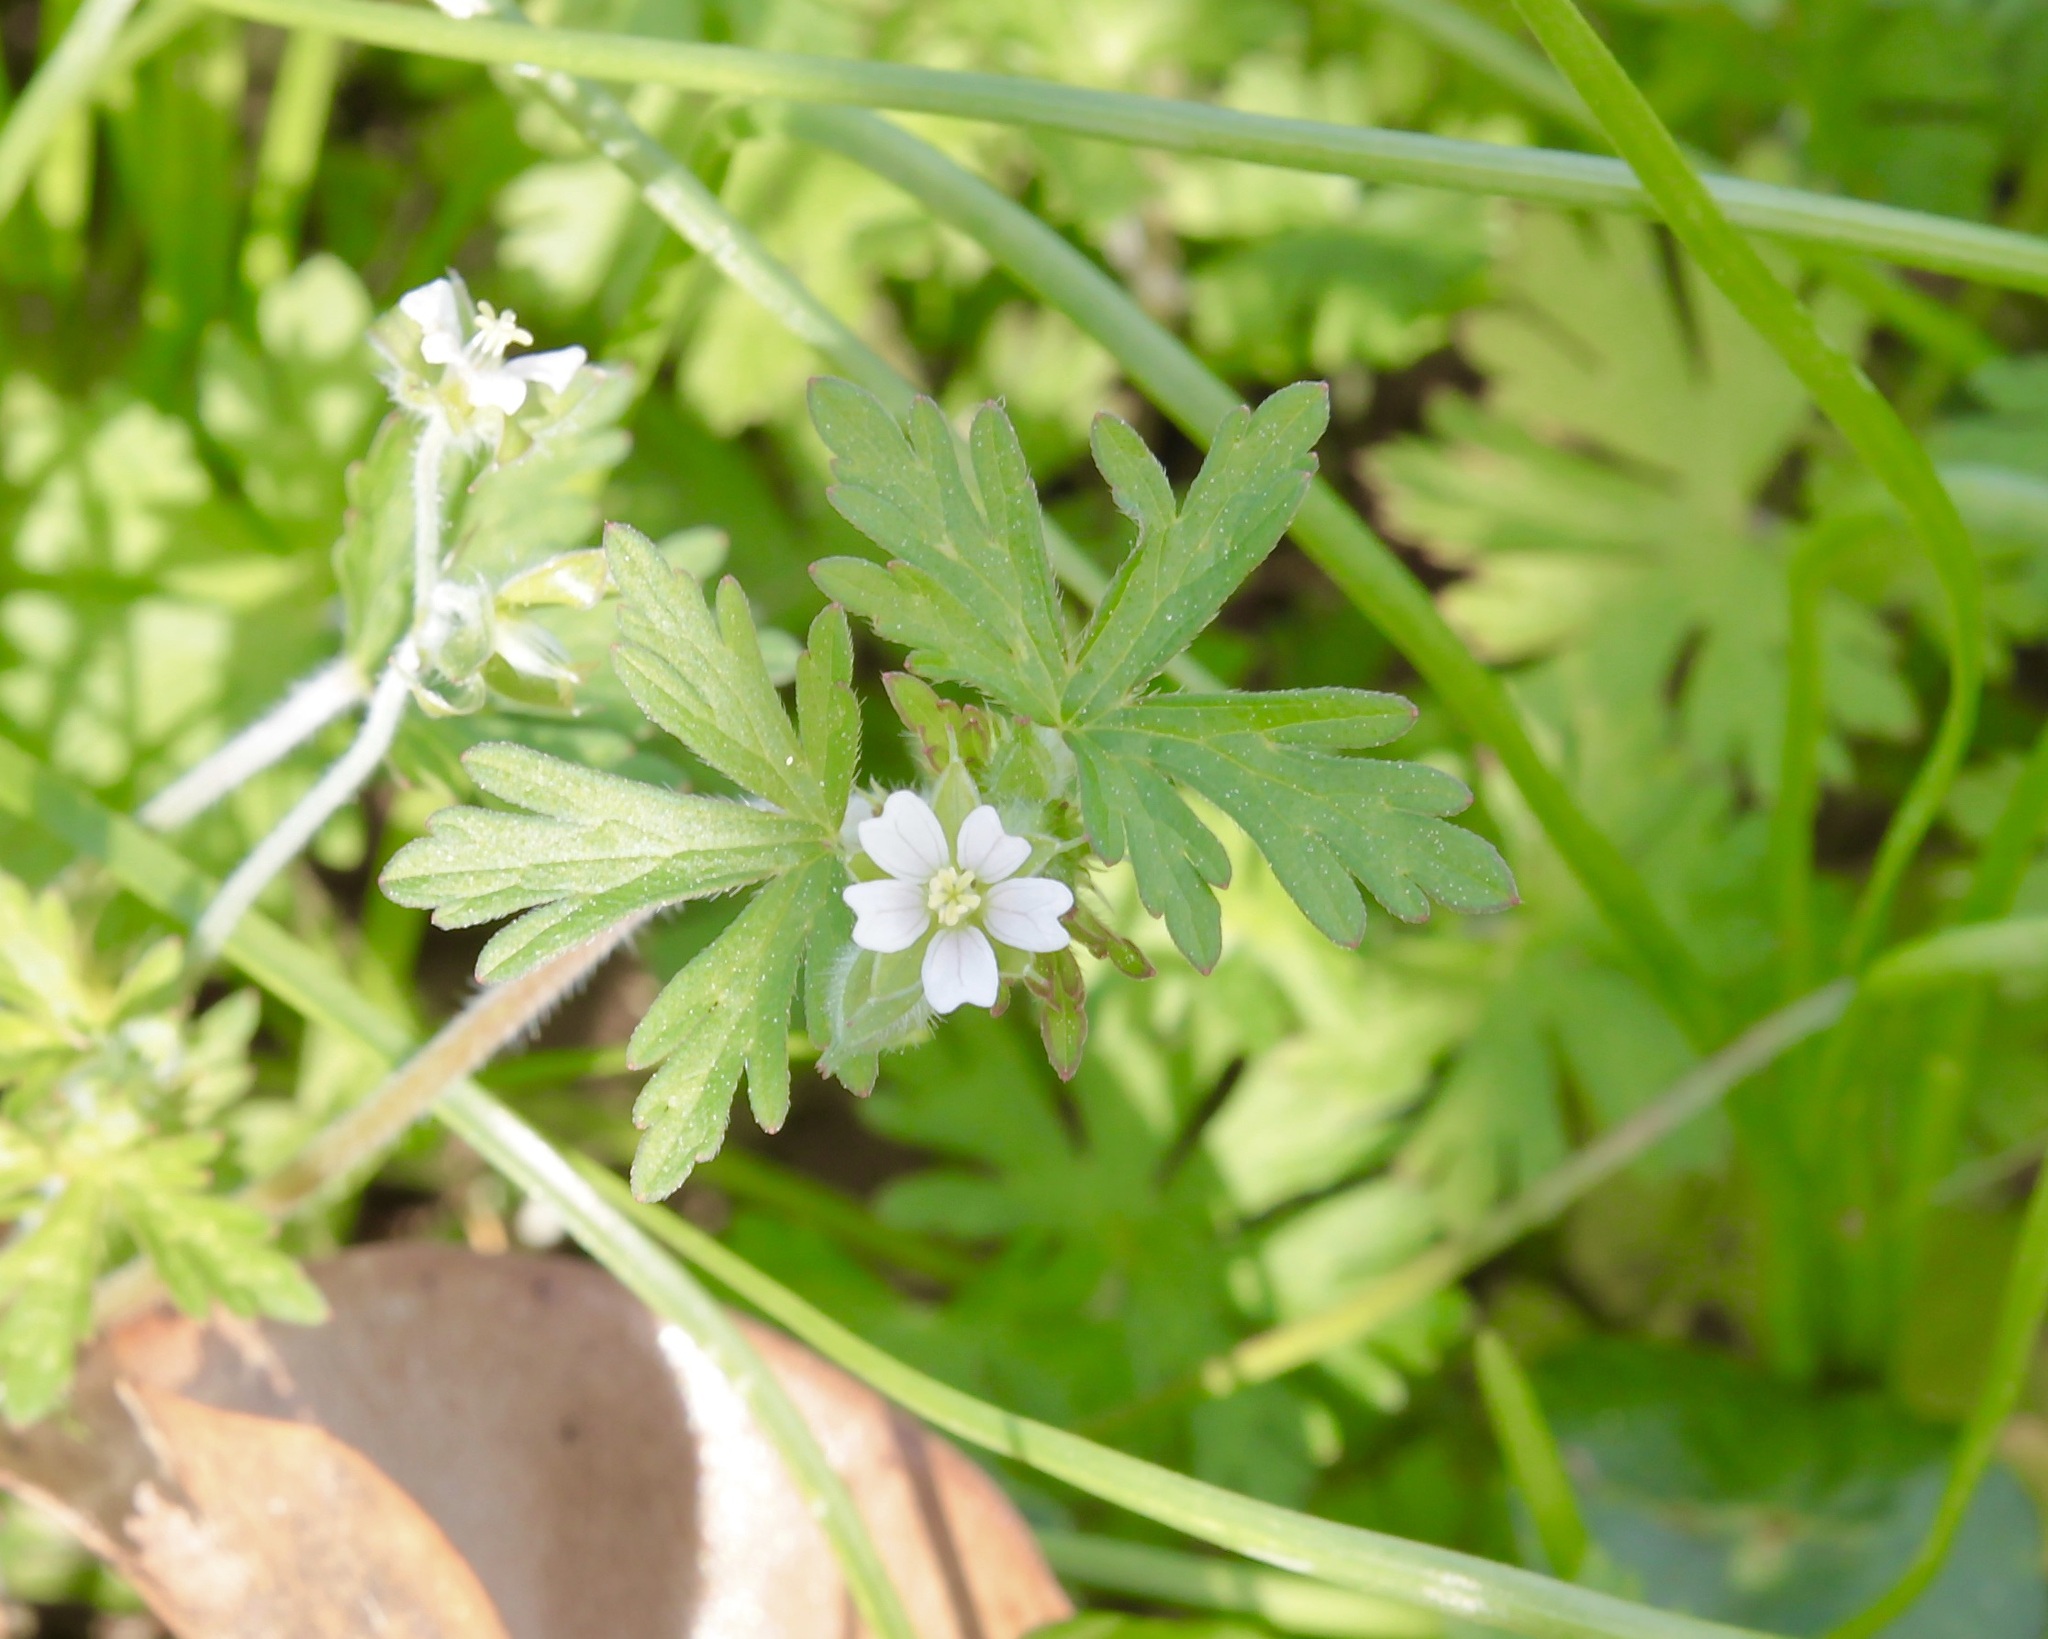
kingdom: Plantae
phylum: Tracheophyta
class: Magnoliopsida
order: Geraniales
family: Geraniaceae
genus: Geranium
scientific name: Geranium carolinianum
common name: Carolina crane's-bill
